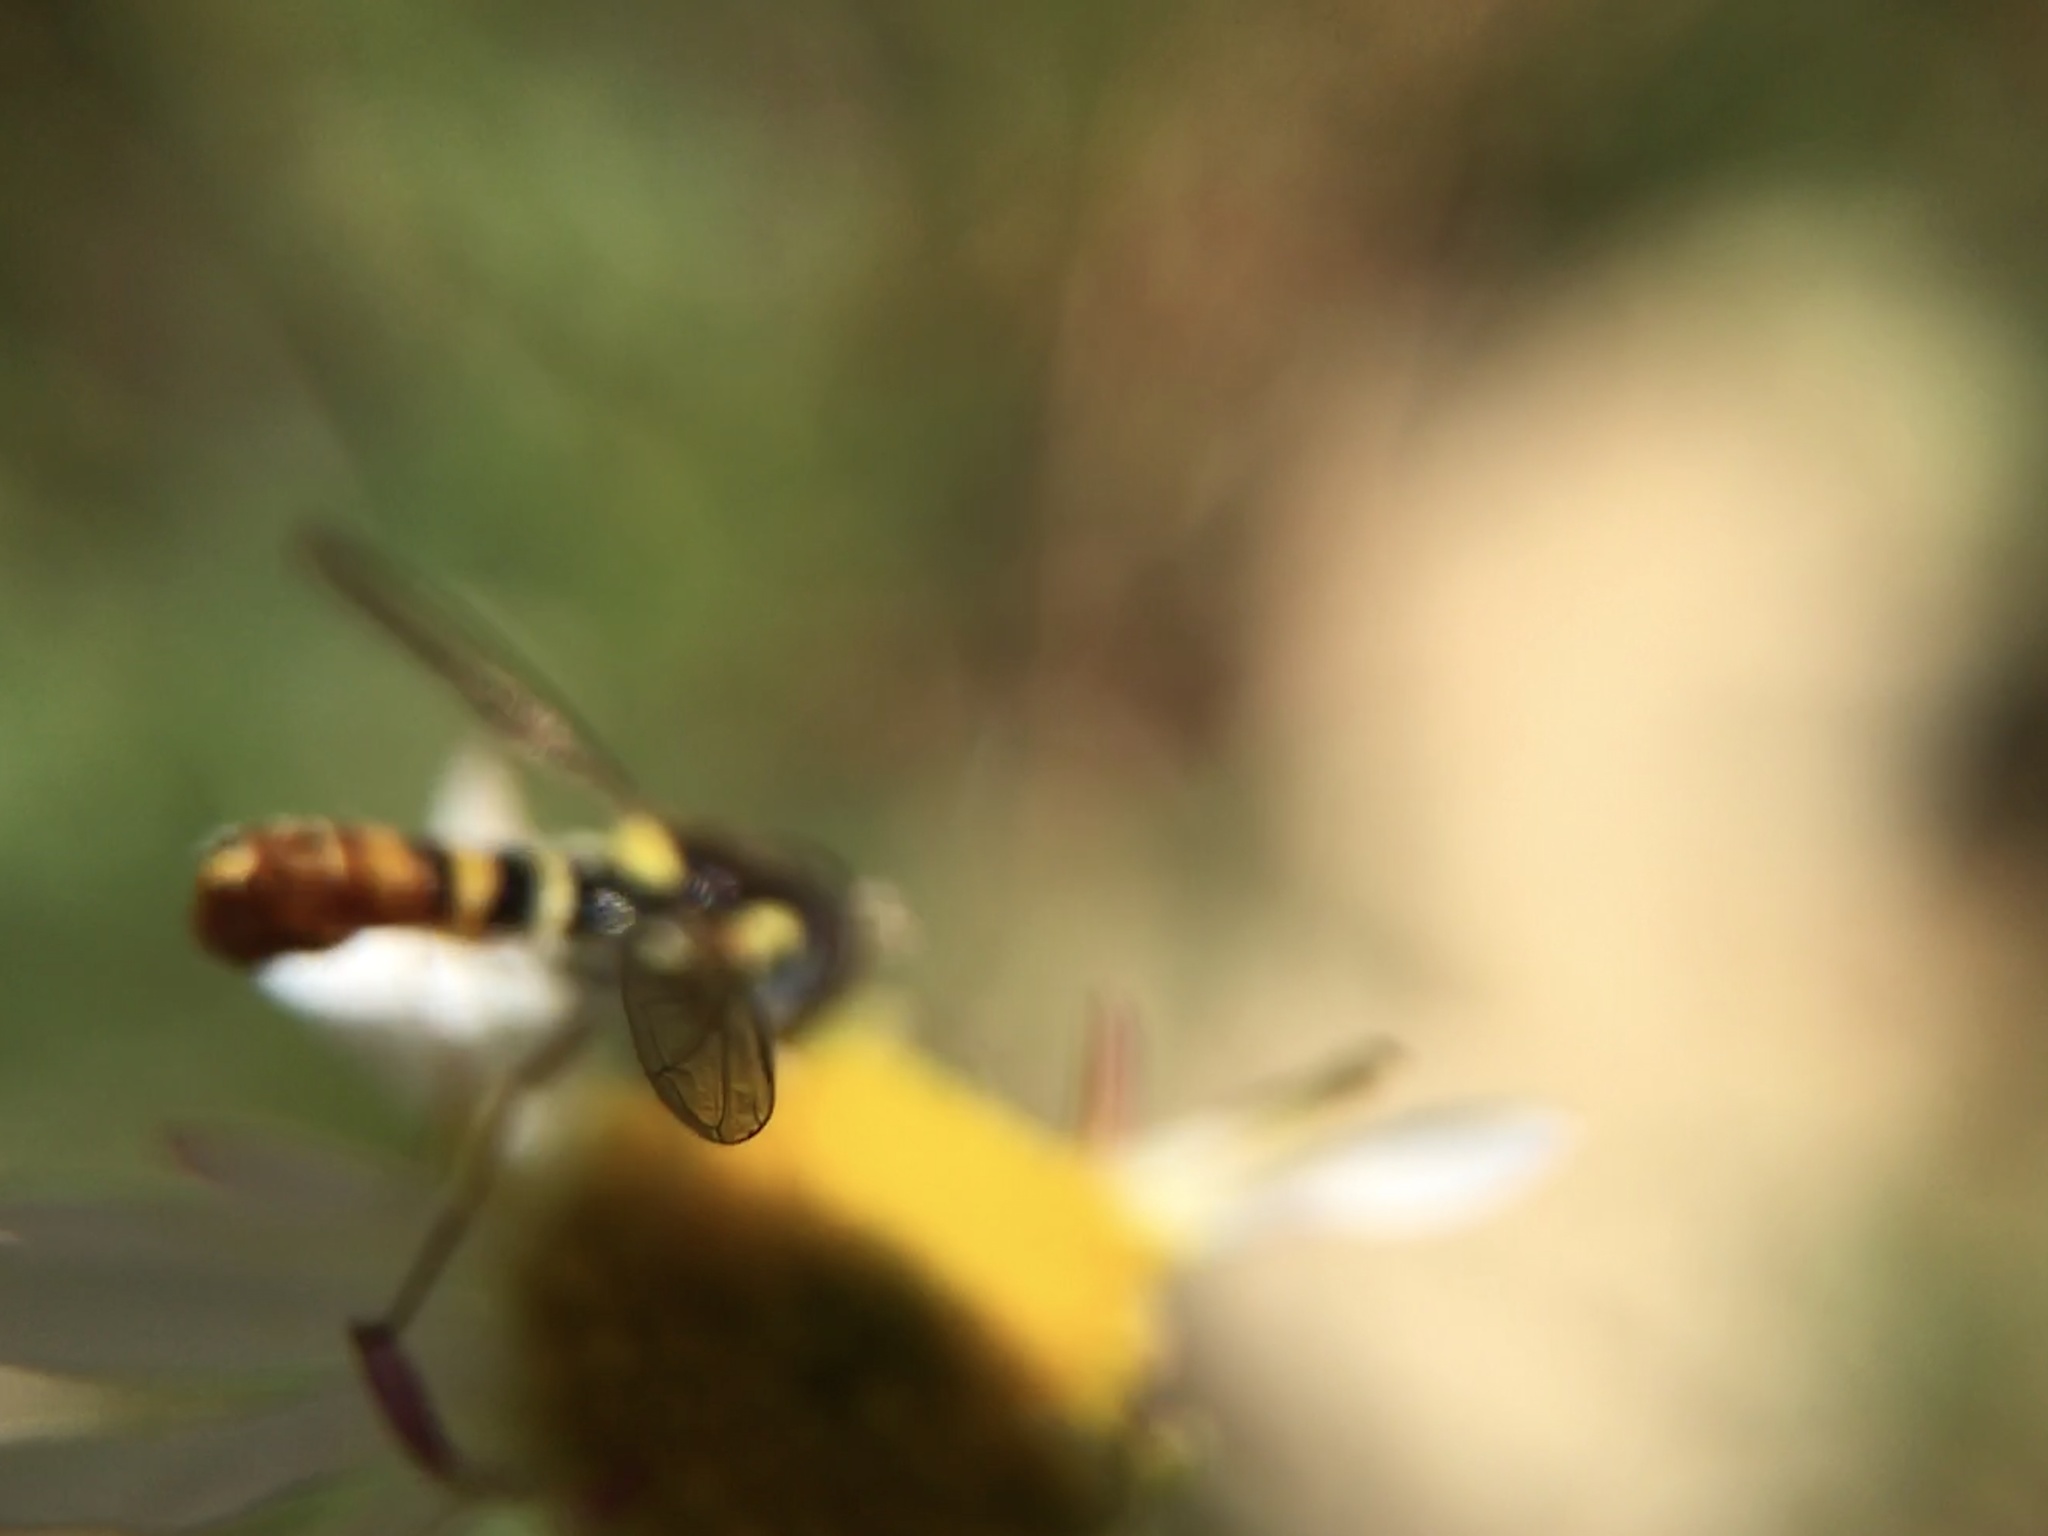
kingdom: Animalia
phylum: Arthropoda
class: Insecta
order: Diptera
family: Syrphidae
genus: Sphaerophoria
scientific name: Sphaerophoria
